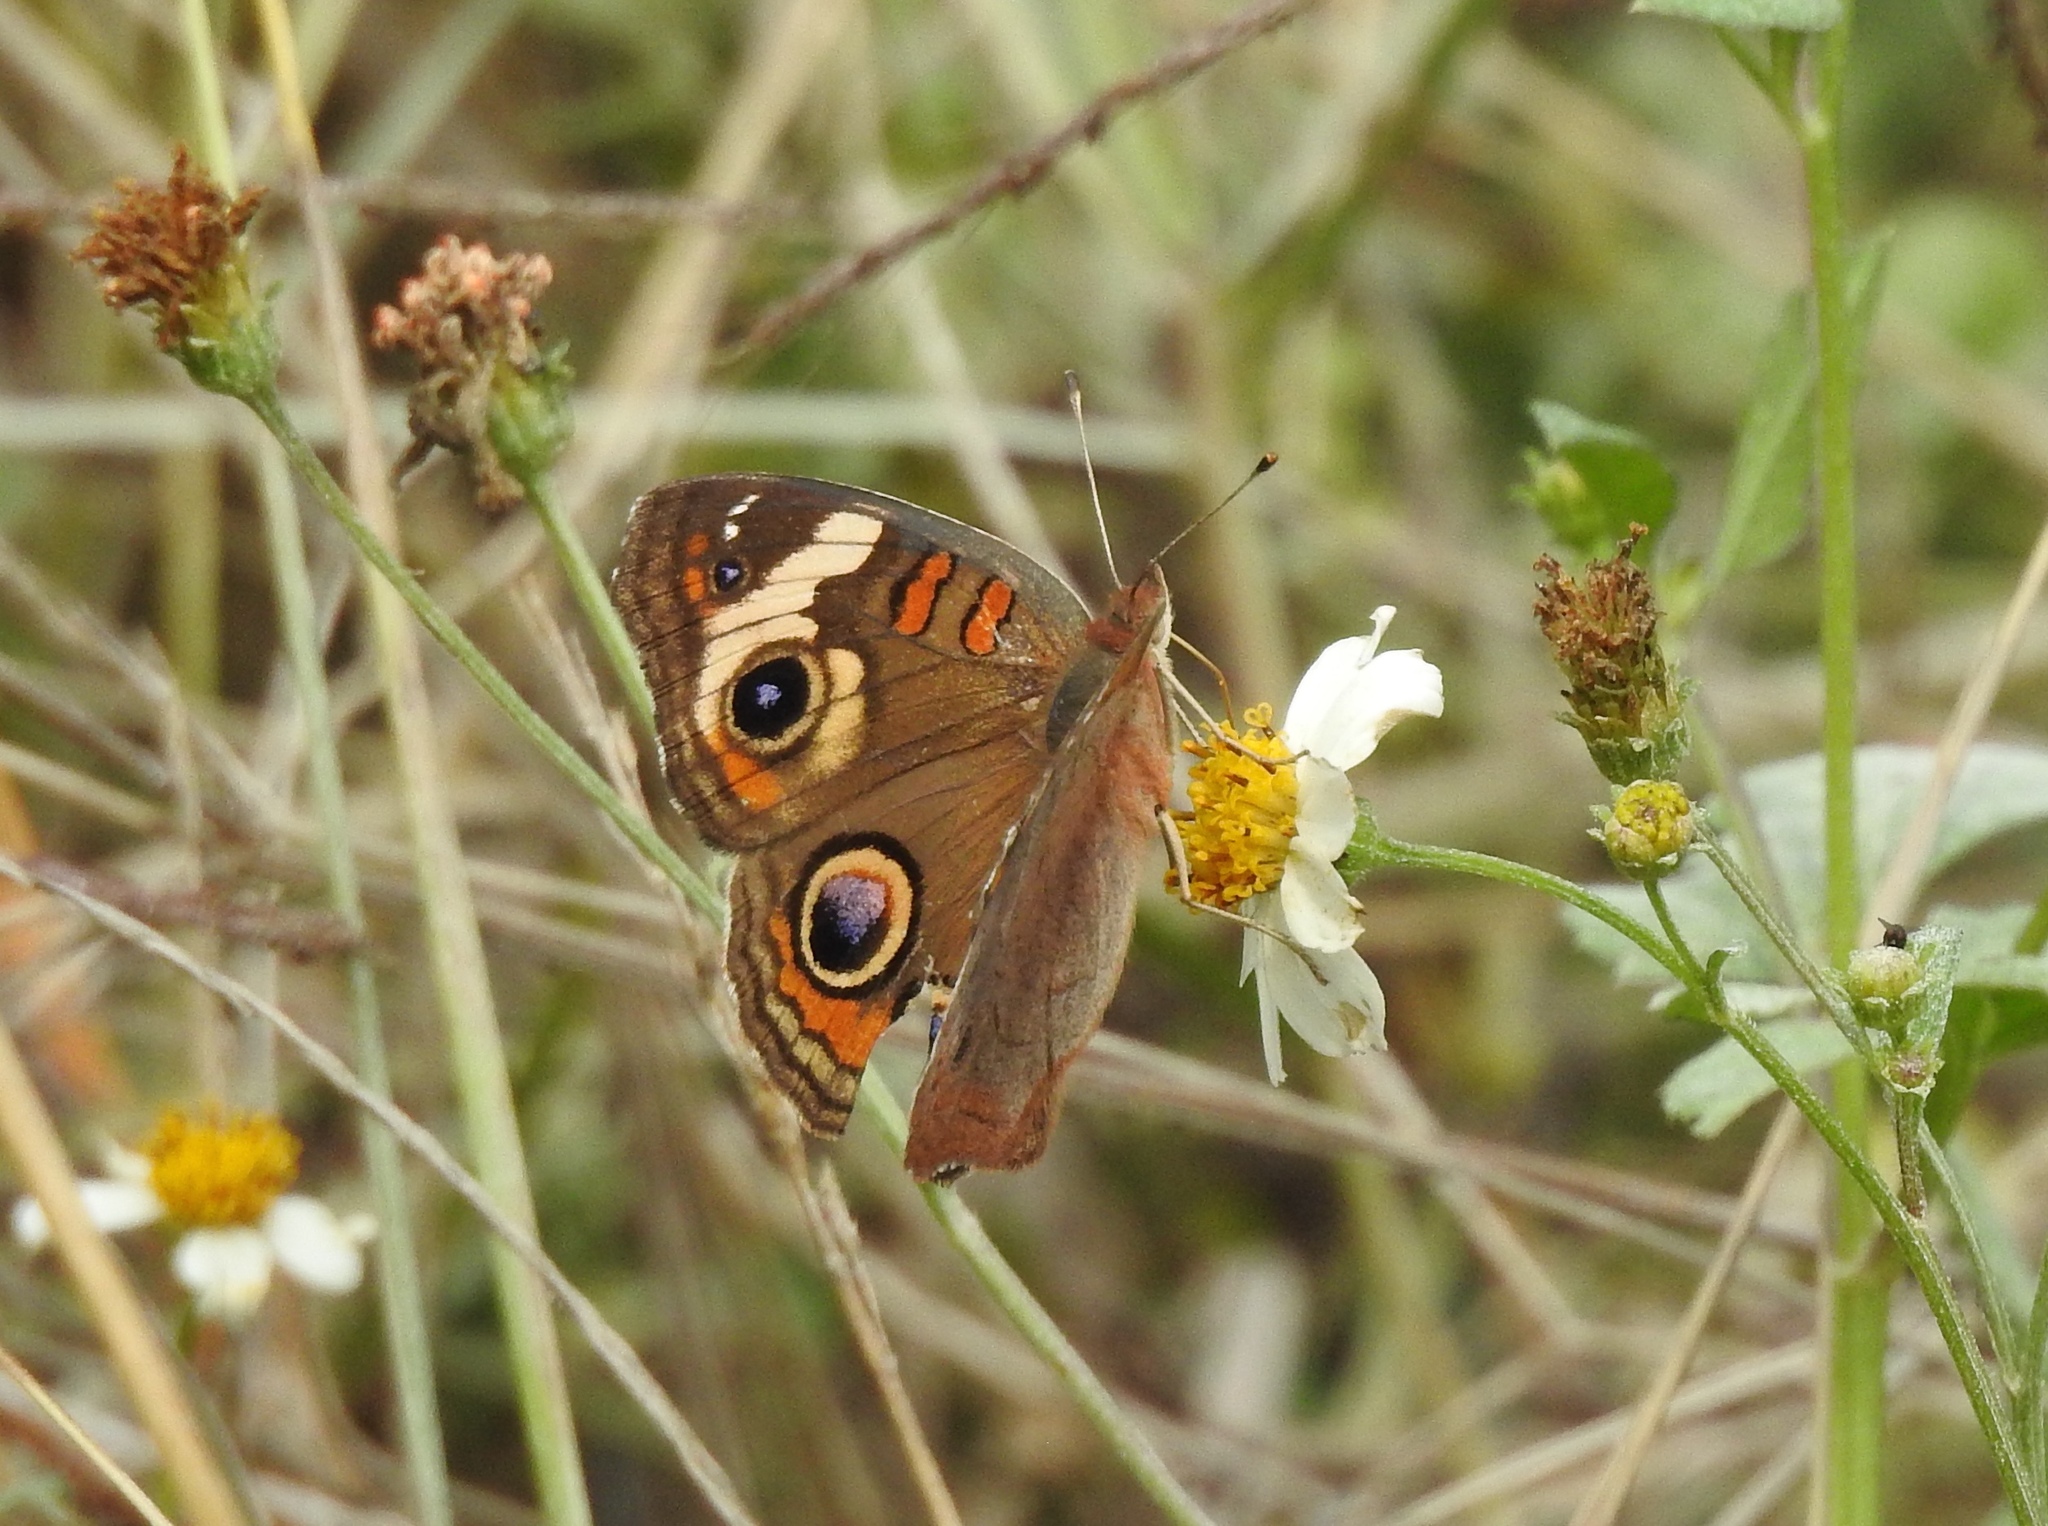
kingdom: Animalia
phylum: Arthropoda
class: Insecta
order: Lepidoptera
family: Nymphalidae
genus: Junonia
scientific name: Junonia coenia
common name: Common buckeye
